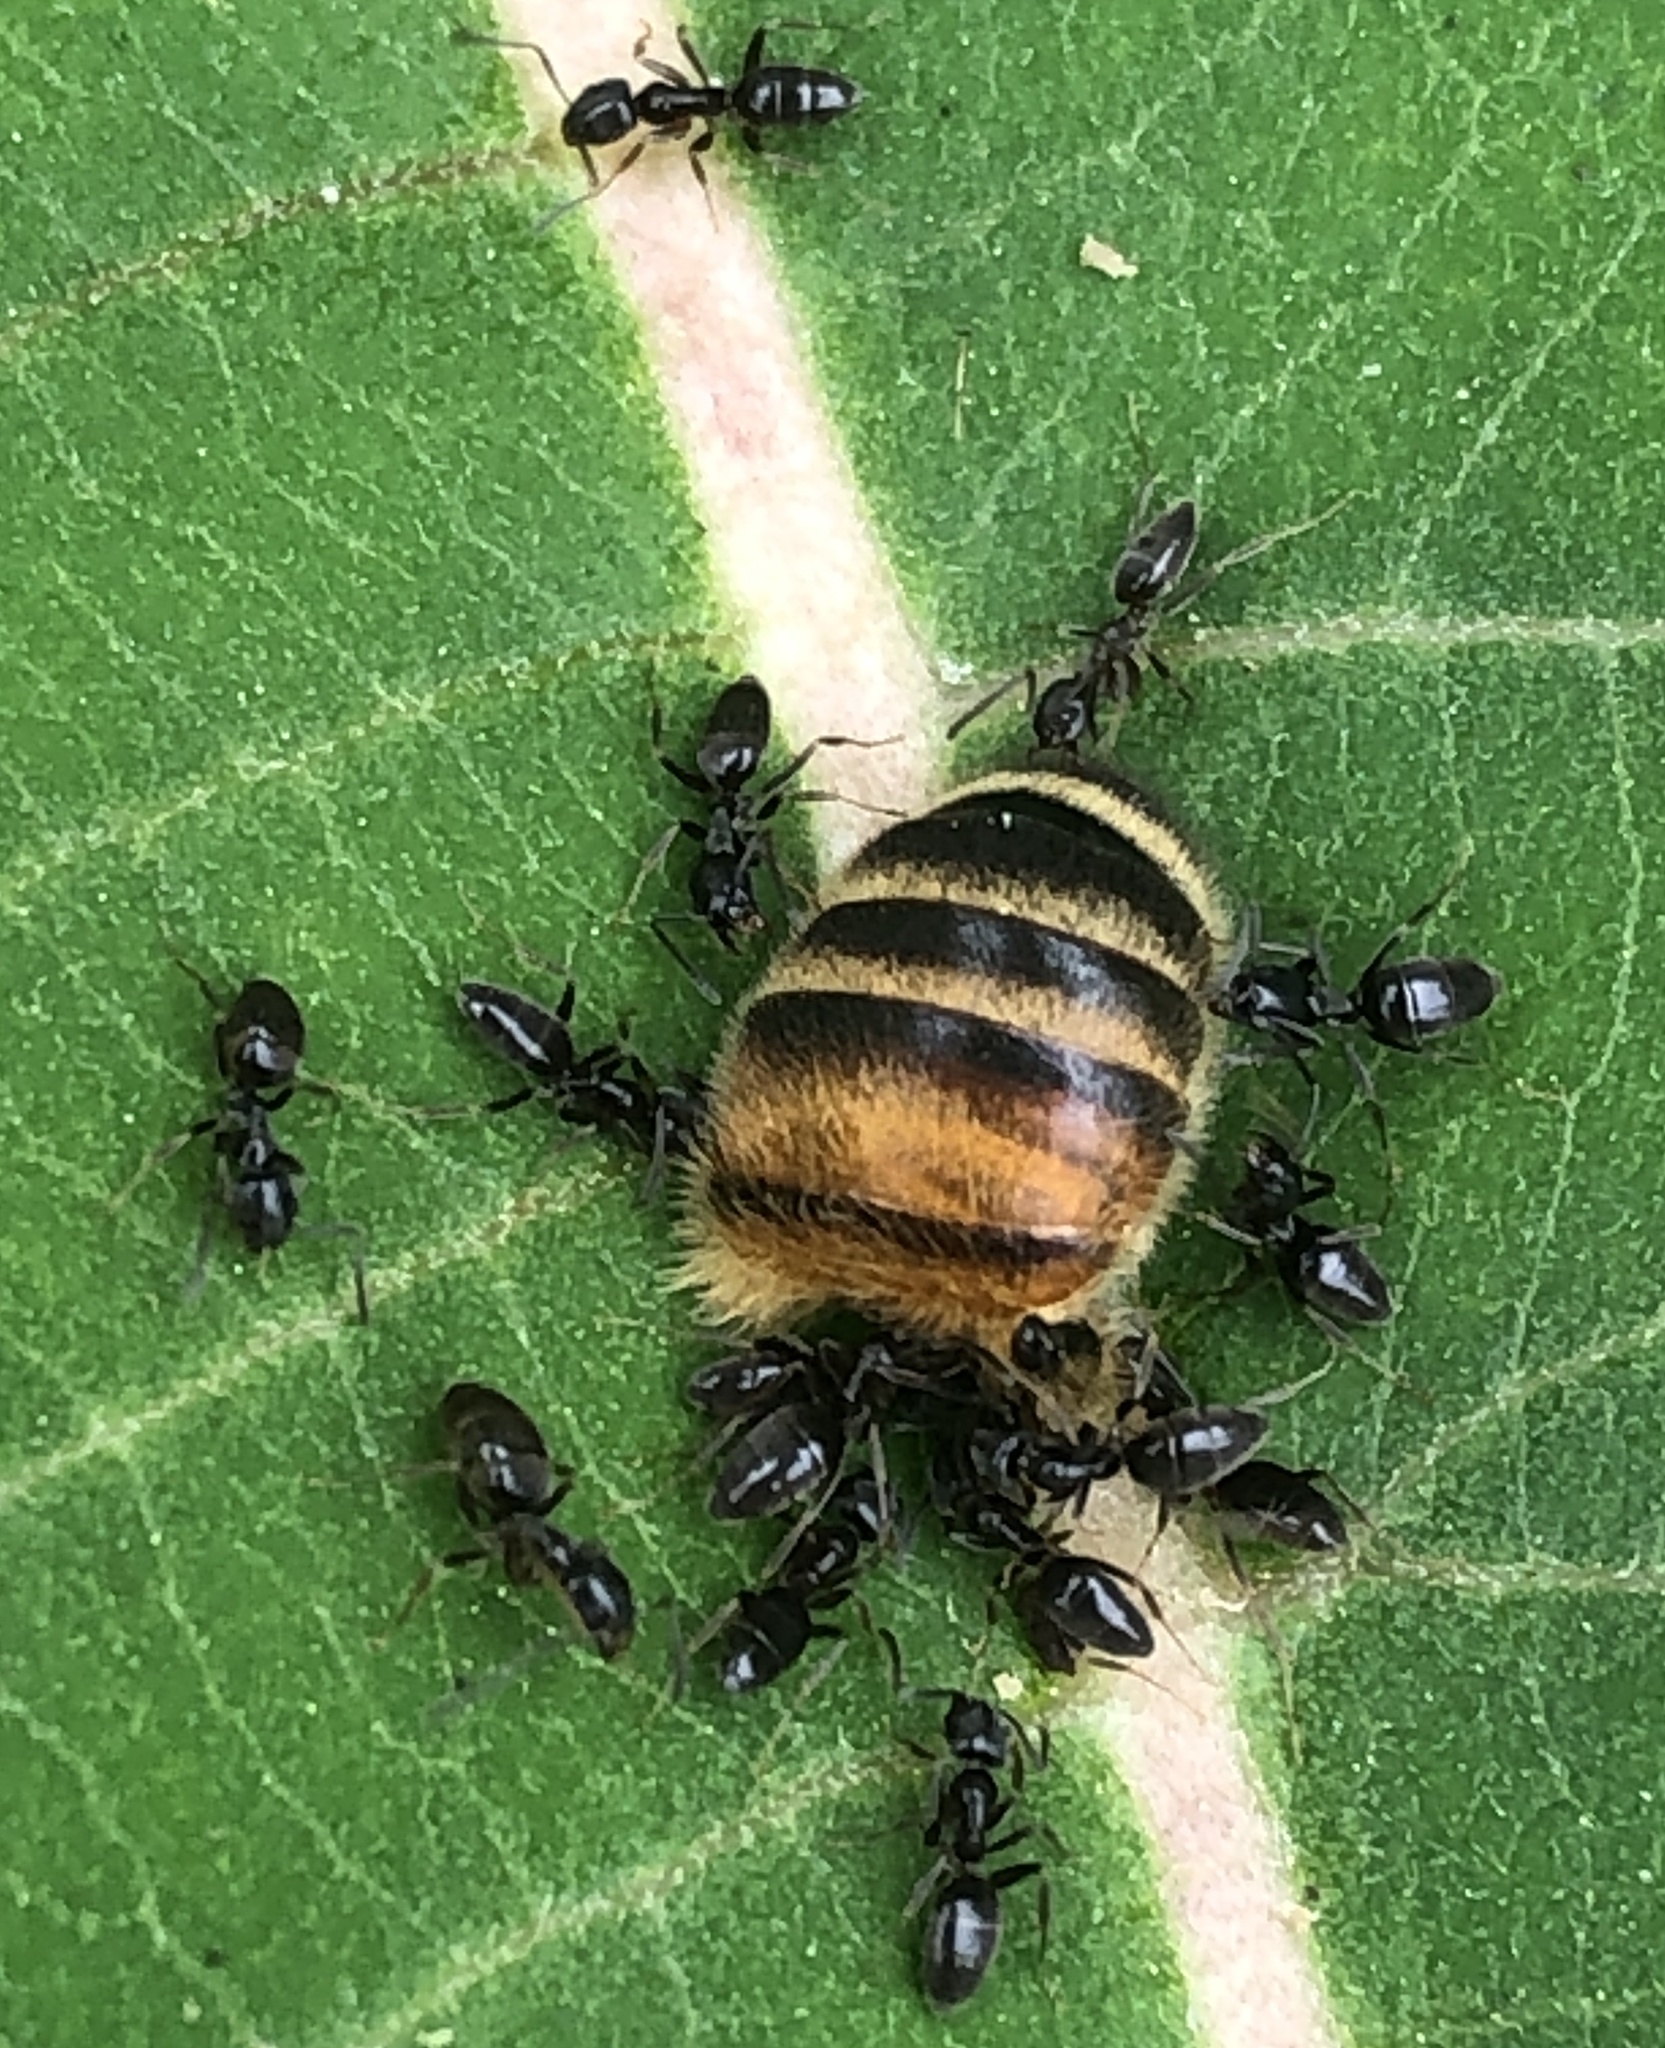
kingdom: Animalia
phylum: Arthropoda
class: Insecta
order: Hymenoptera
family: Formicidae
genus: Tapinoma
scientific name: Tapinoma sessile
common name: Odorous house ant
